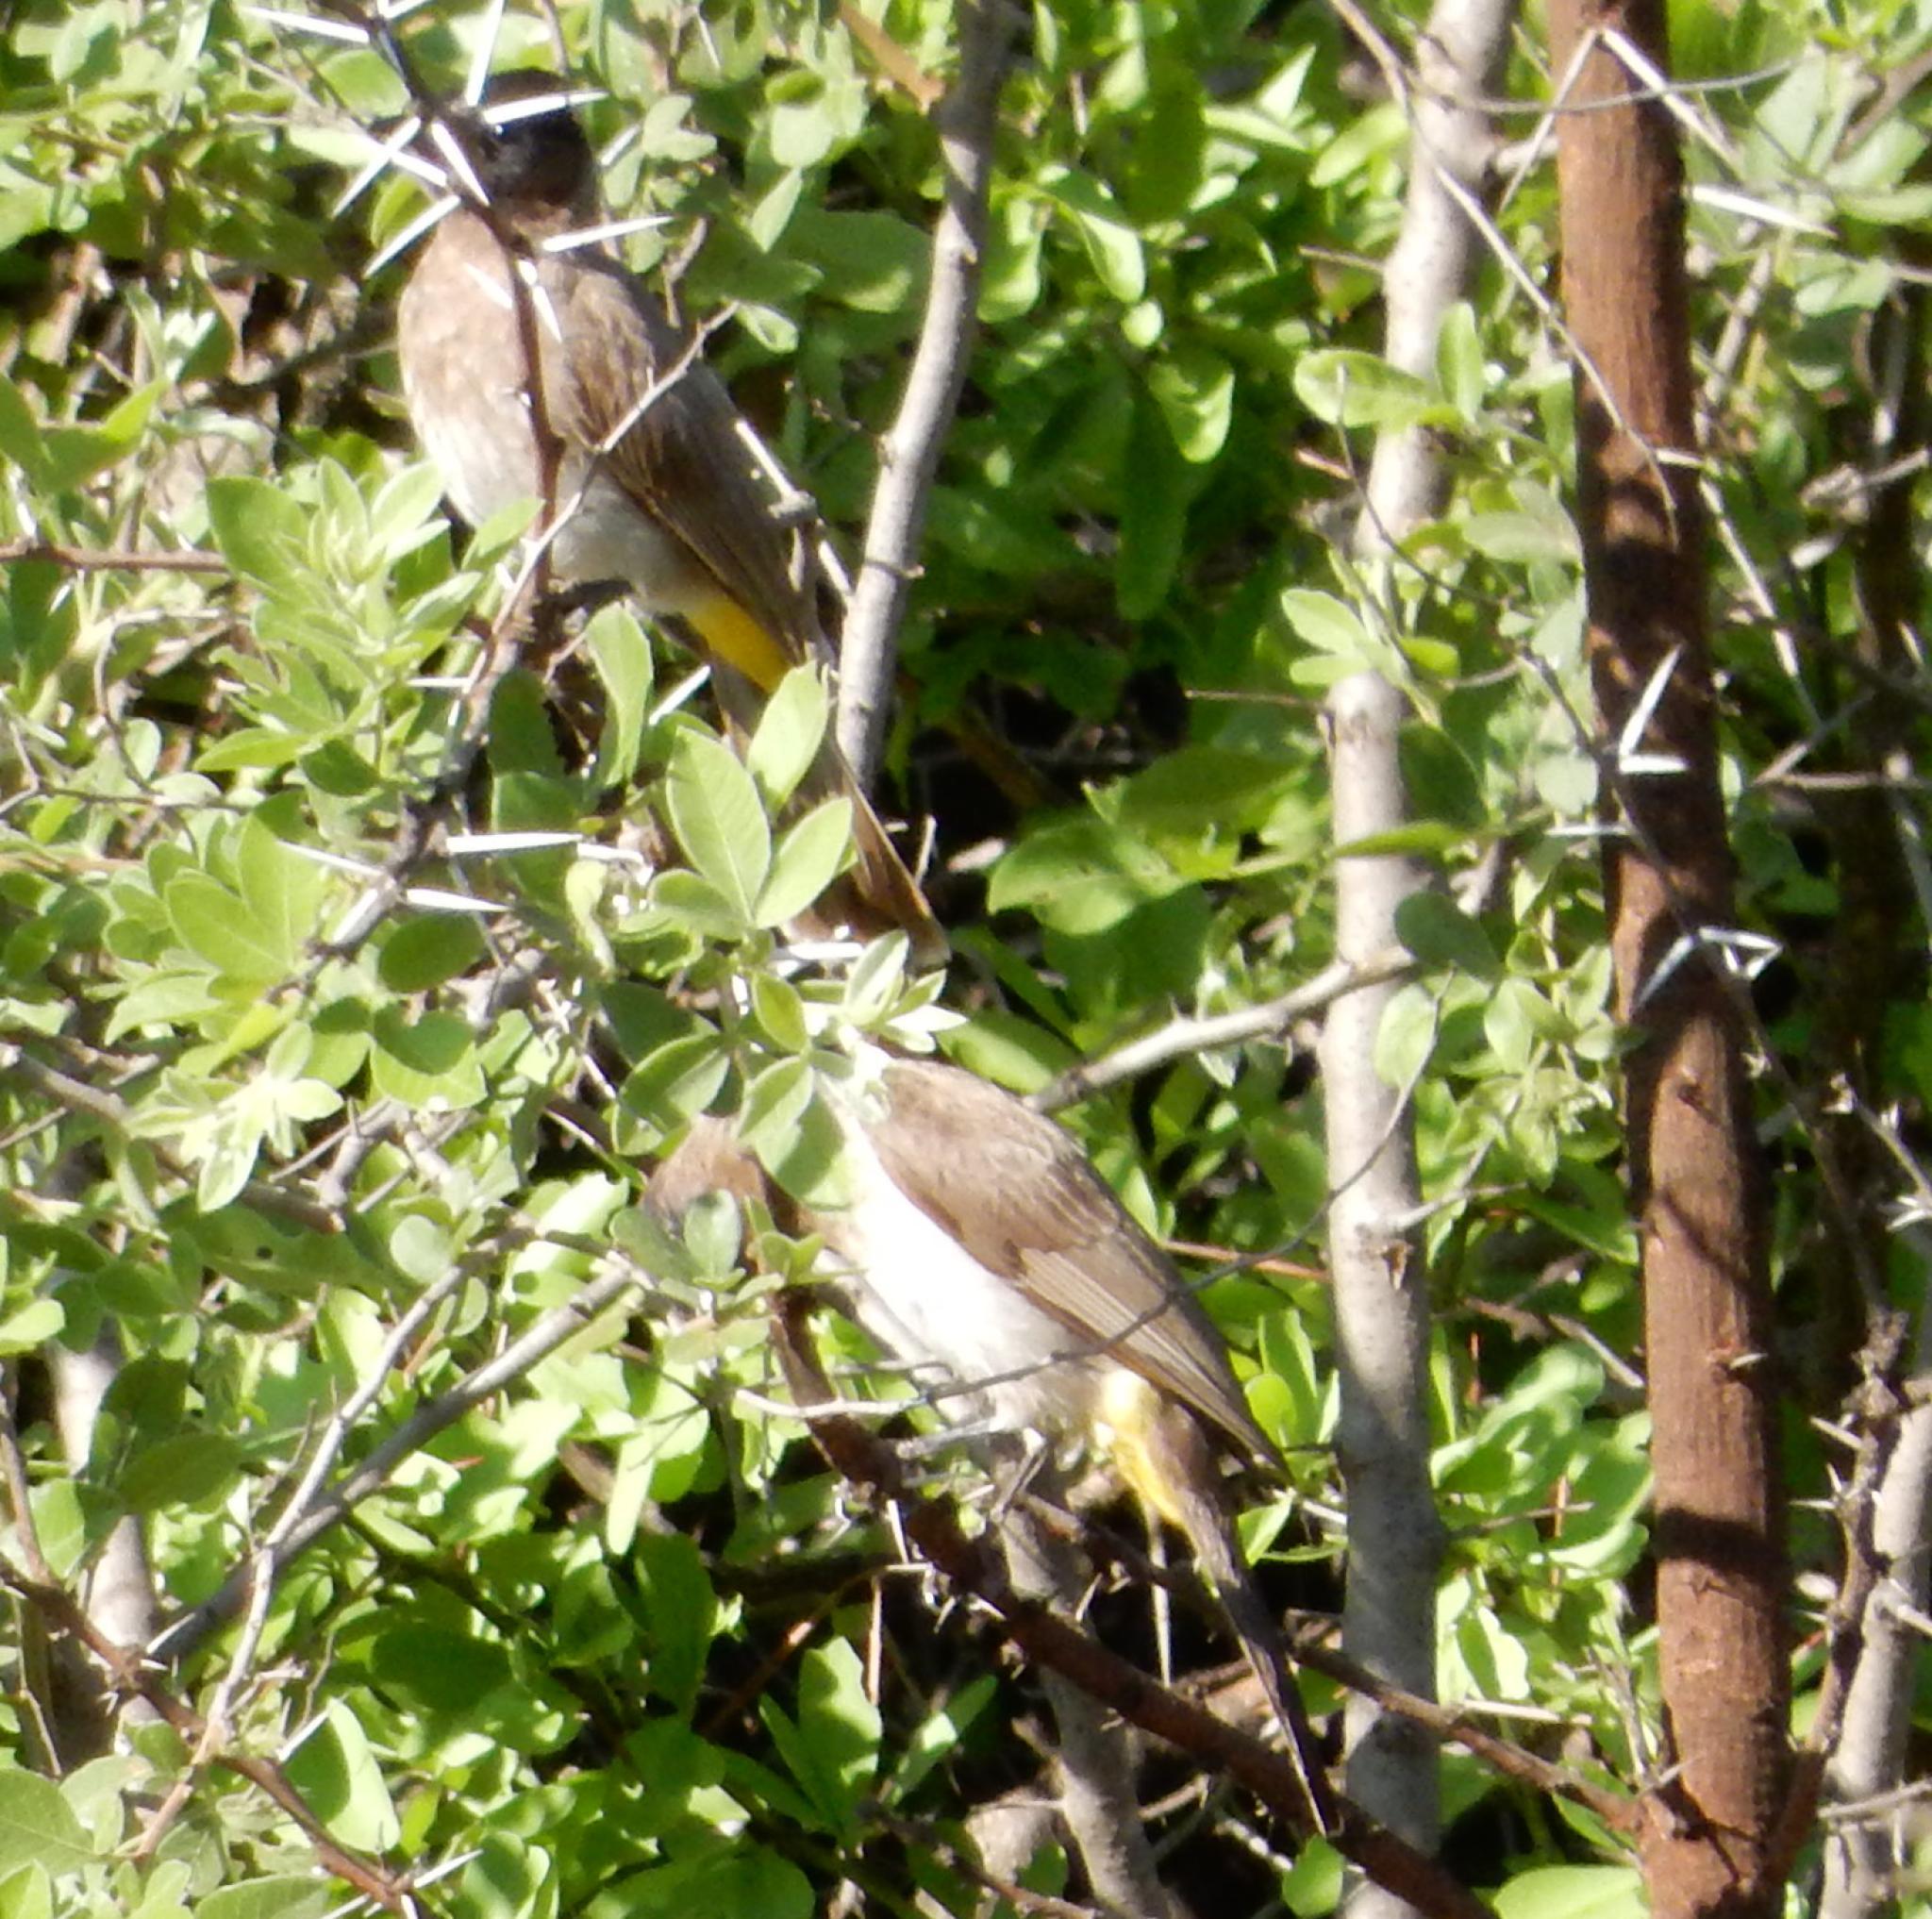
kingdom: Animalia
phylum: Chordata
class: Aves
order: Passeriformes
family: Pycnonotidae
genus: Pycnonotus
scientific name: Pycnonotus barbatus
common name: Common bulbul
